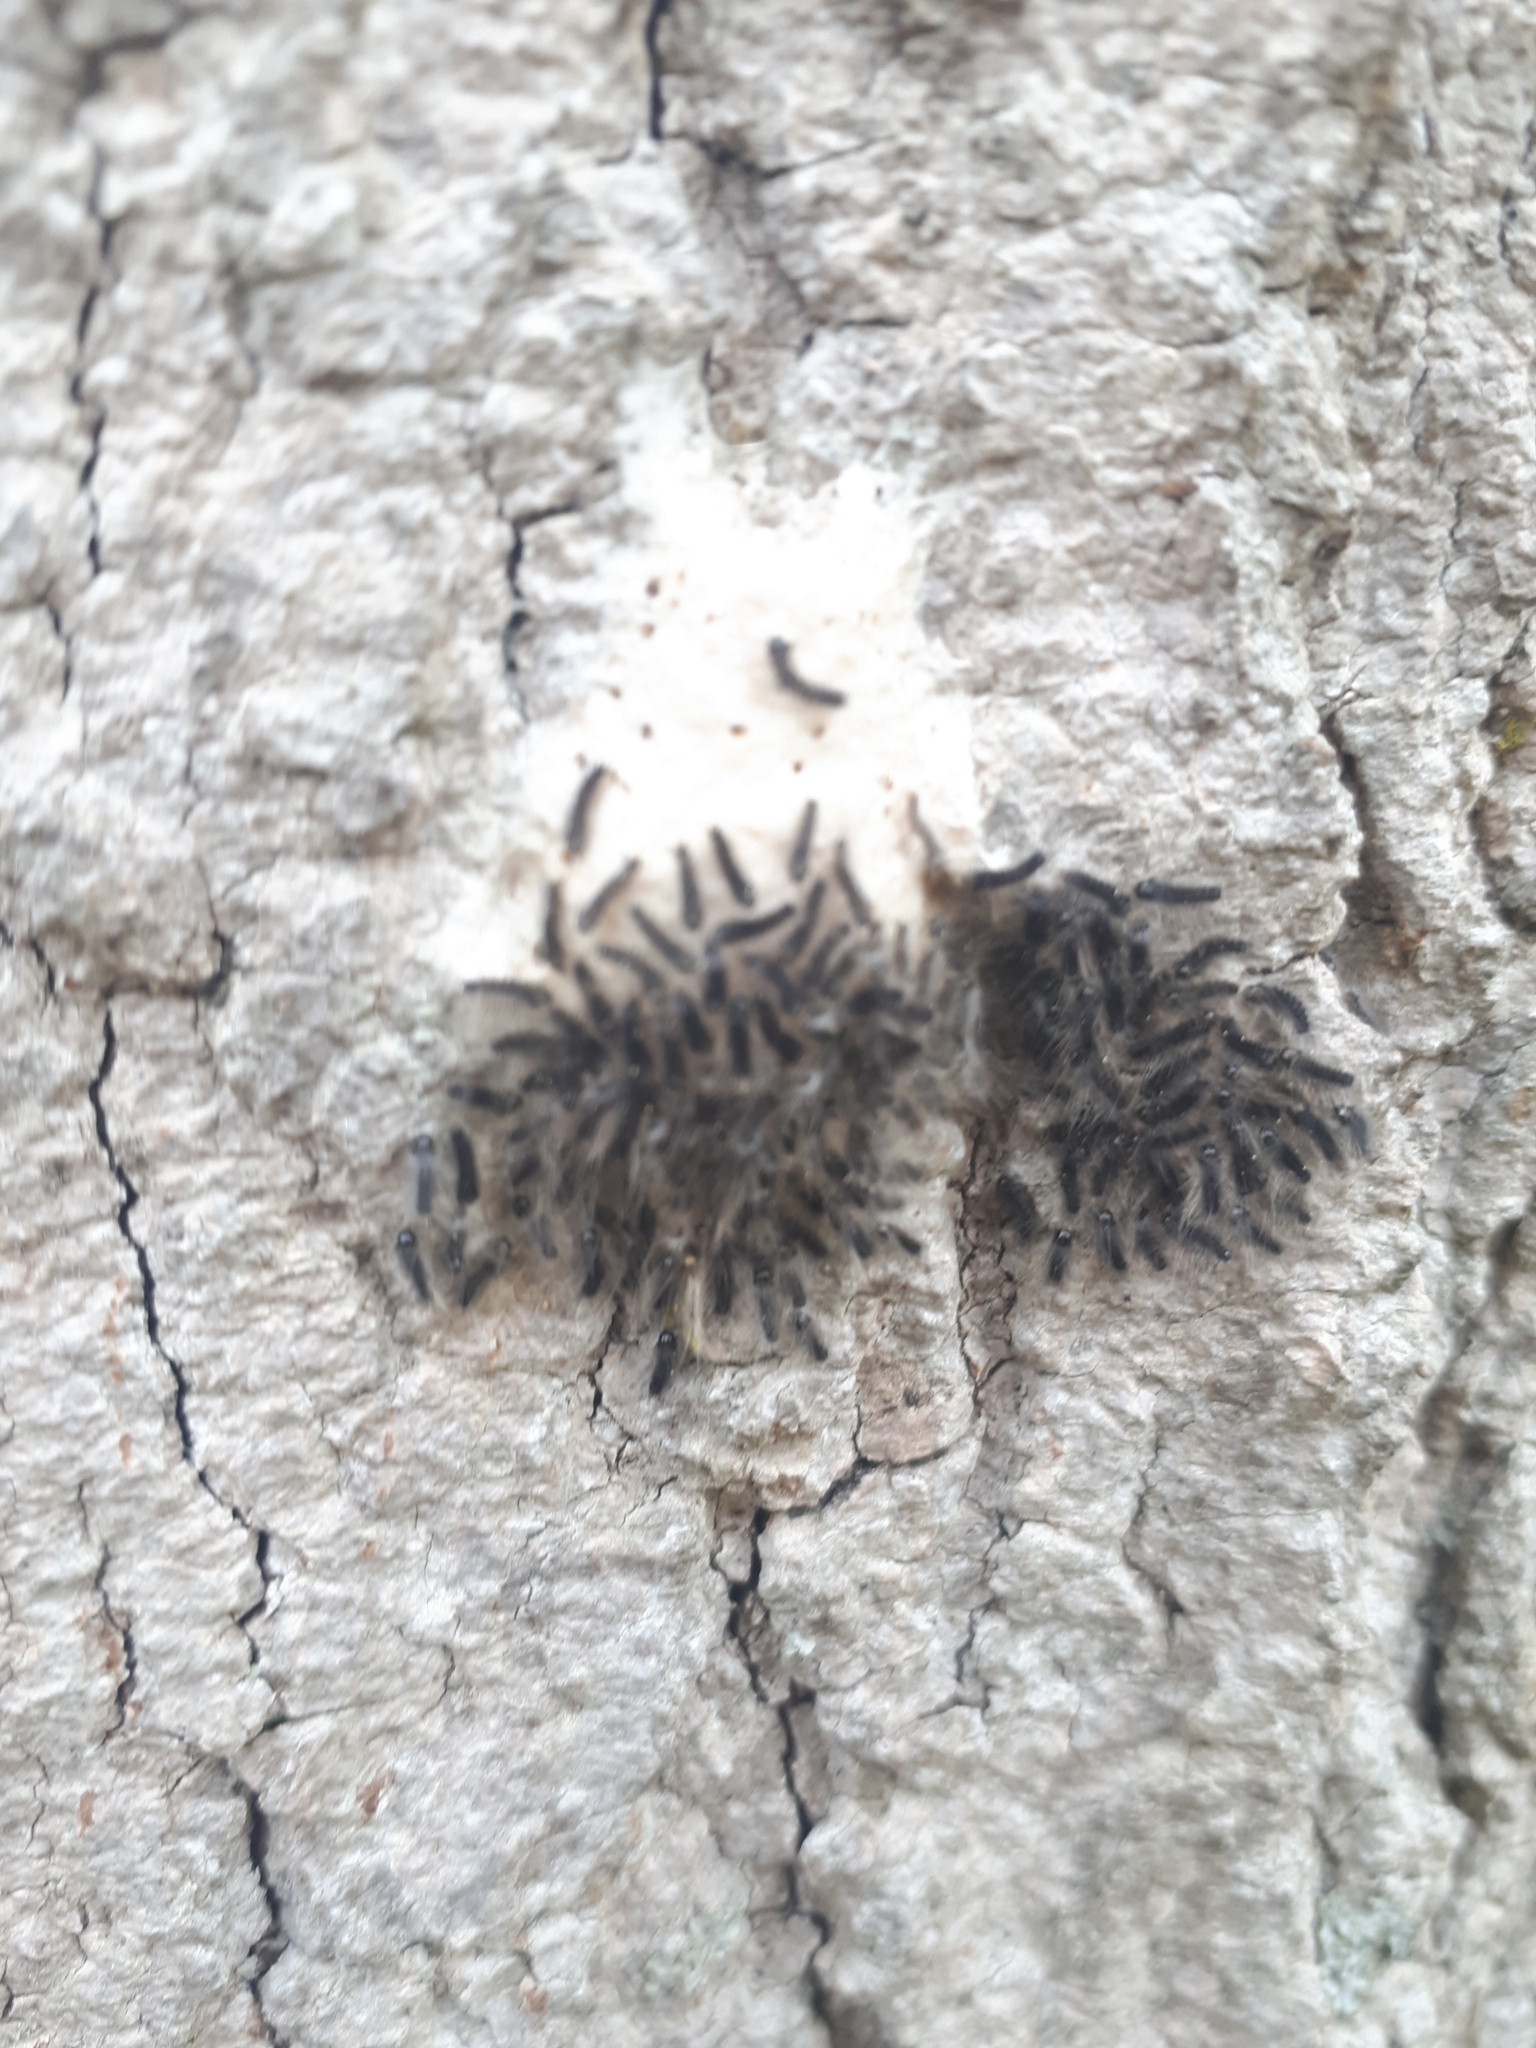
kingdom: Animalia
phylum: Arthropoda
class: Insecta
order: Lepidoptera
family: Erebidae
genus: Lymantria
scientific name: Lymantria dispar
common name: Gypsy moth
